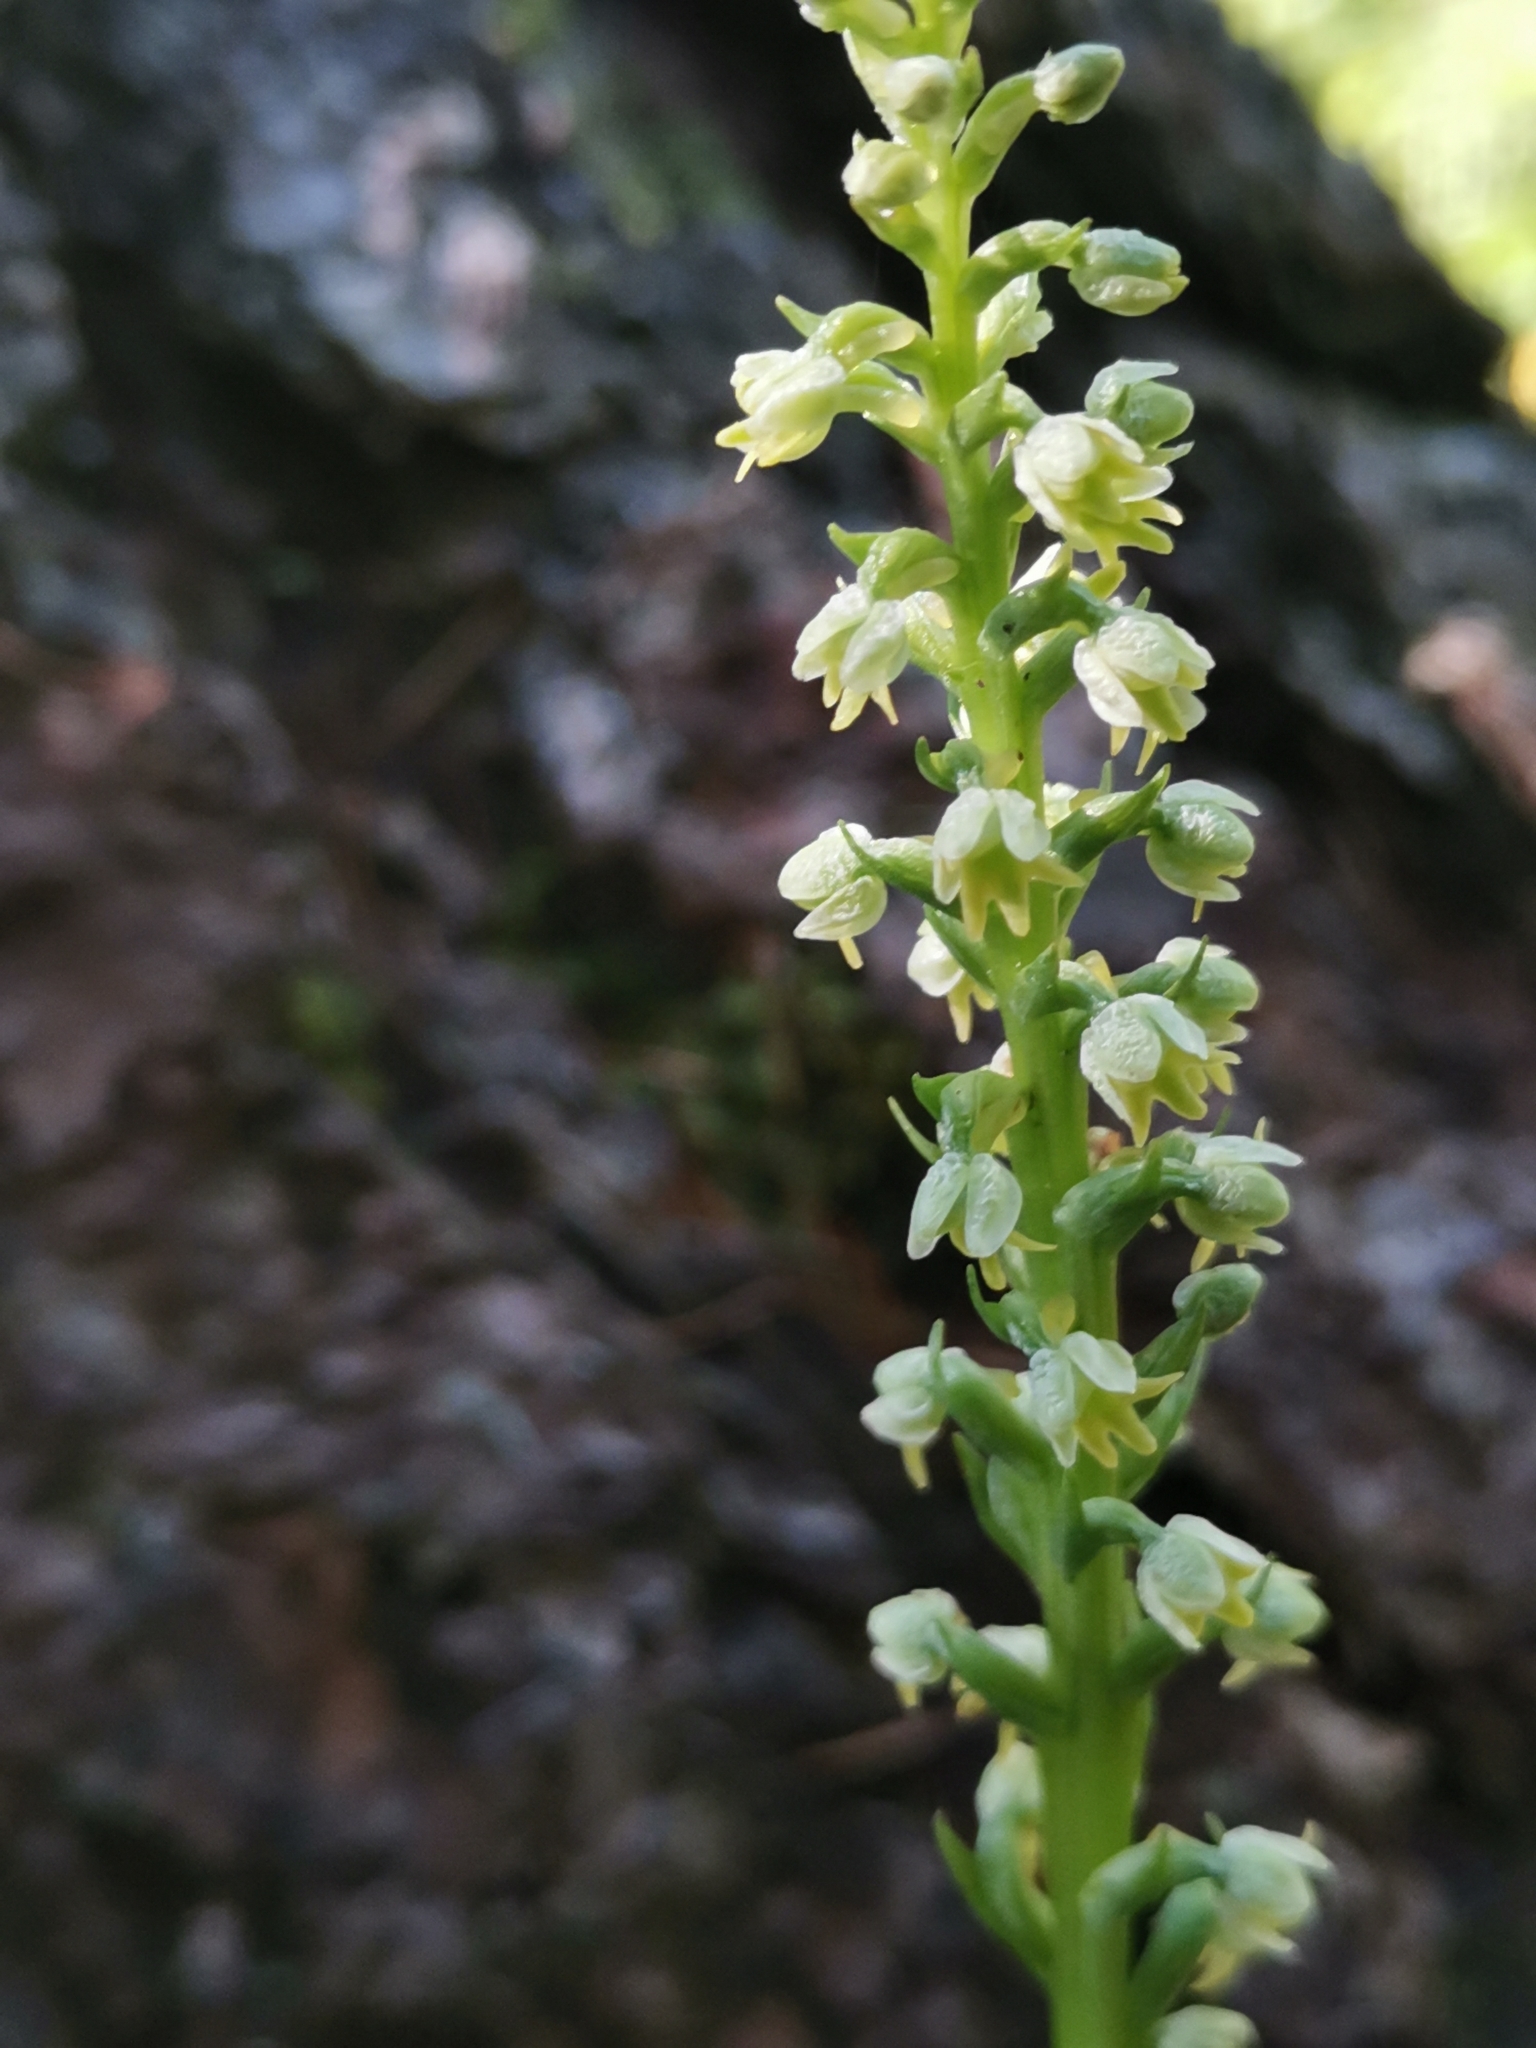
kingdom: Plantae
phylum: Tracheophyta
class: Liliopsida
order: Asparagales
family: Orchidaceae
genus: Pseudorchis
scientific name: Pseudorchis albida
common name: Small-white orchid
